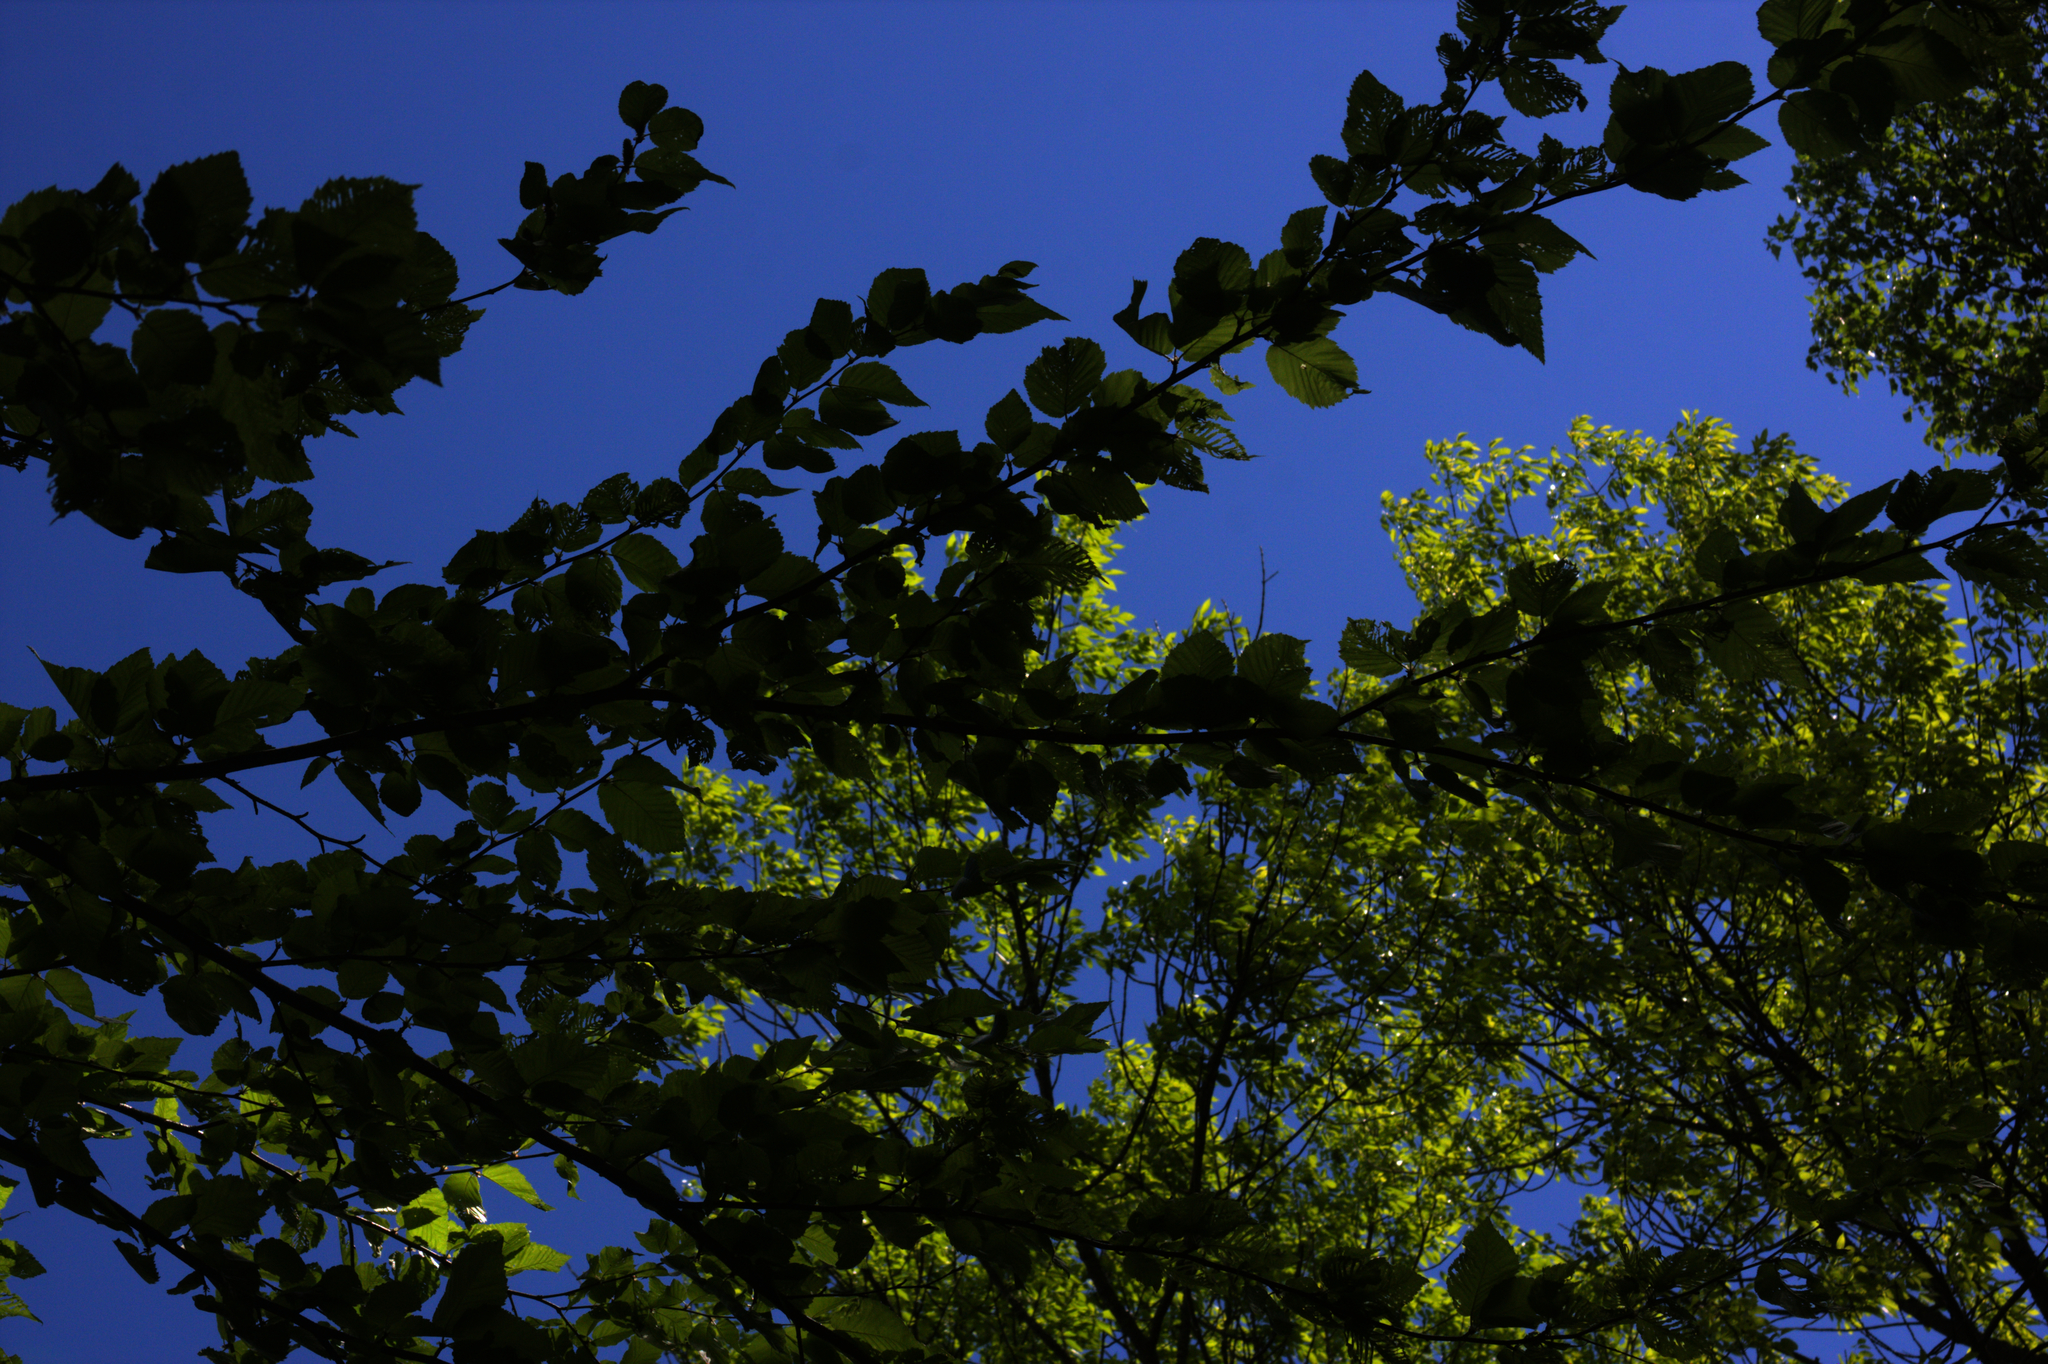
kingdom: Plantae
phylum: Tracheophyta
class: Magnoliopsida
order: Fagales
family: Betulaceae
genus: Betula
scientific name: Betula alleghaniensis
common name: Yellow birch
